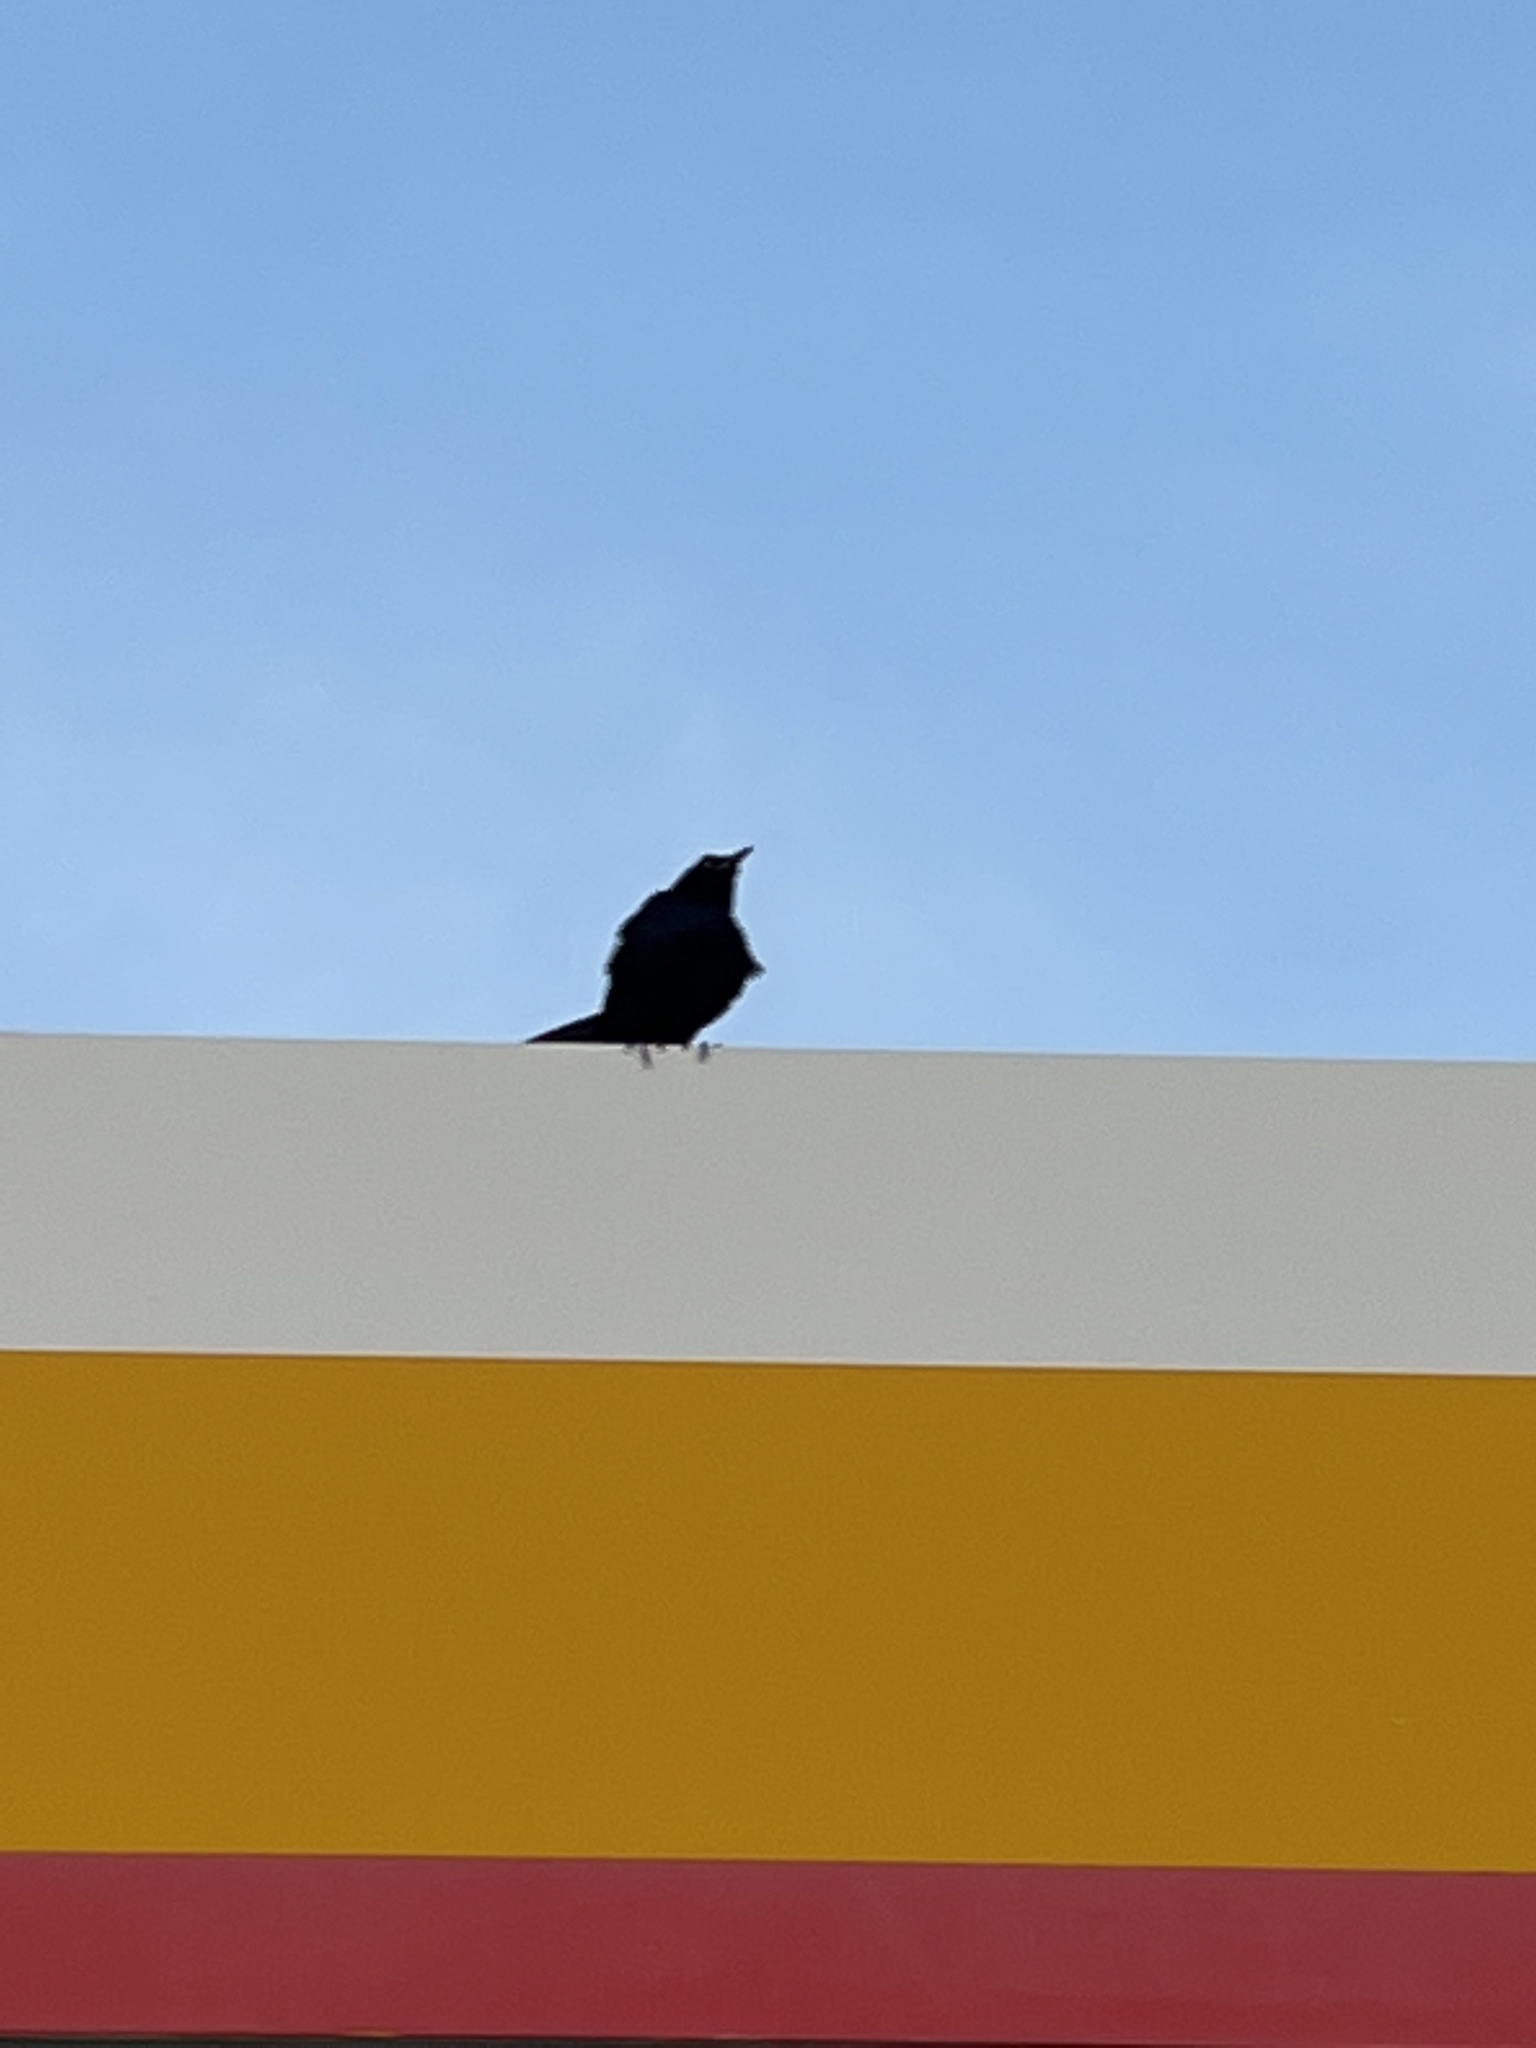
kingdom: Animalia
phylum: Chordata
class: Aves
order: Passeriformes
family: Icteridae
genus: Quiscalus
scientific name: Quiscalus mexicanus
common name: Great-tailed grackle
